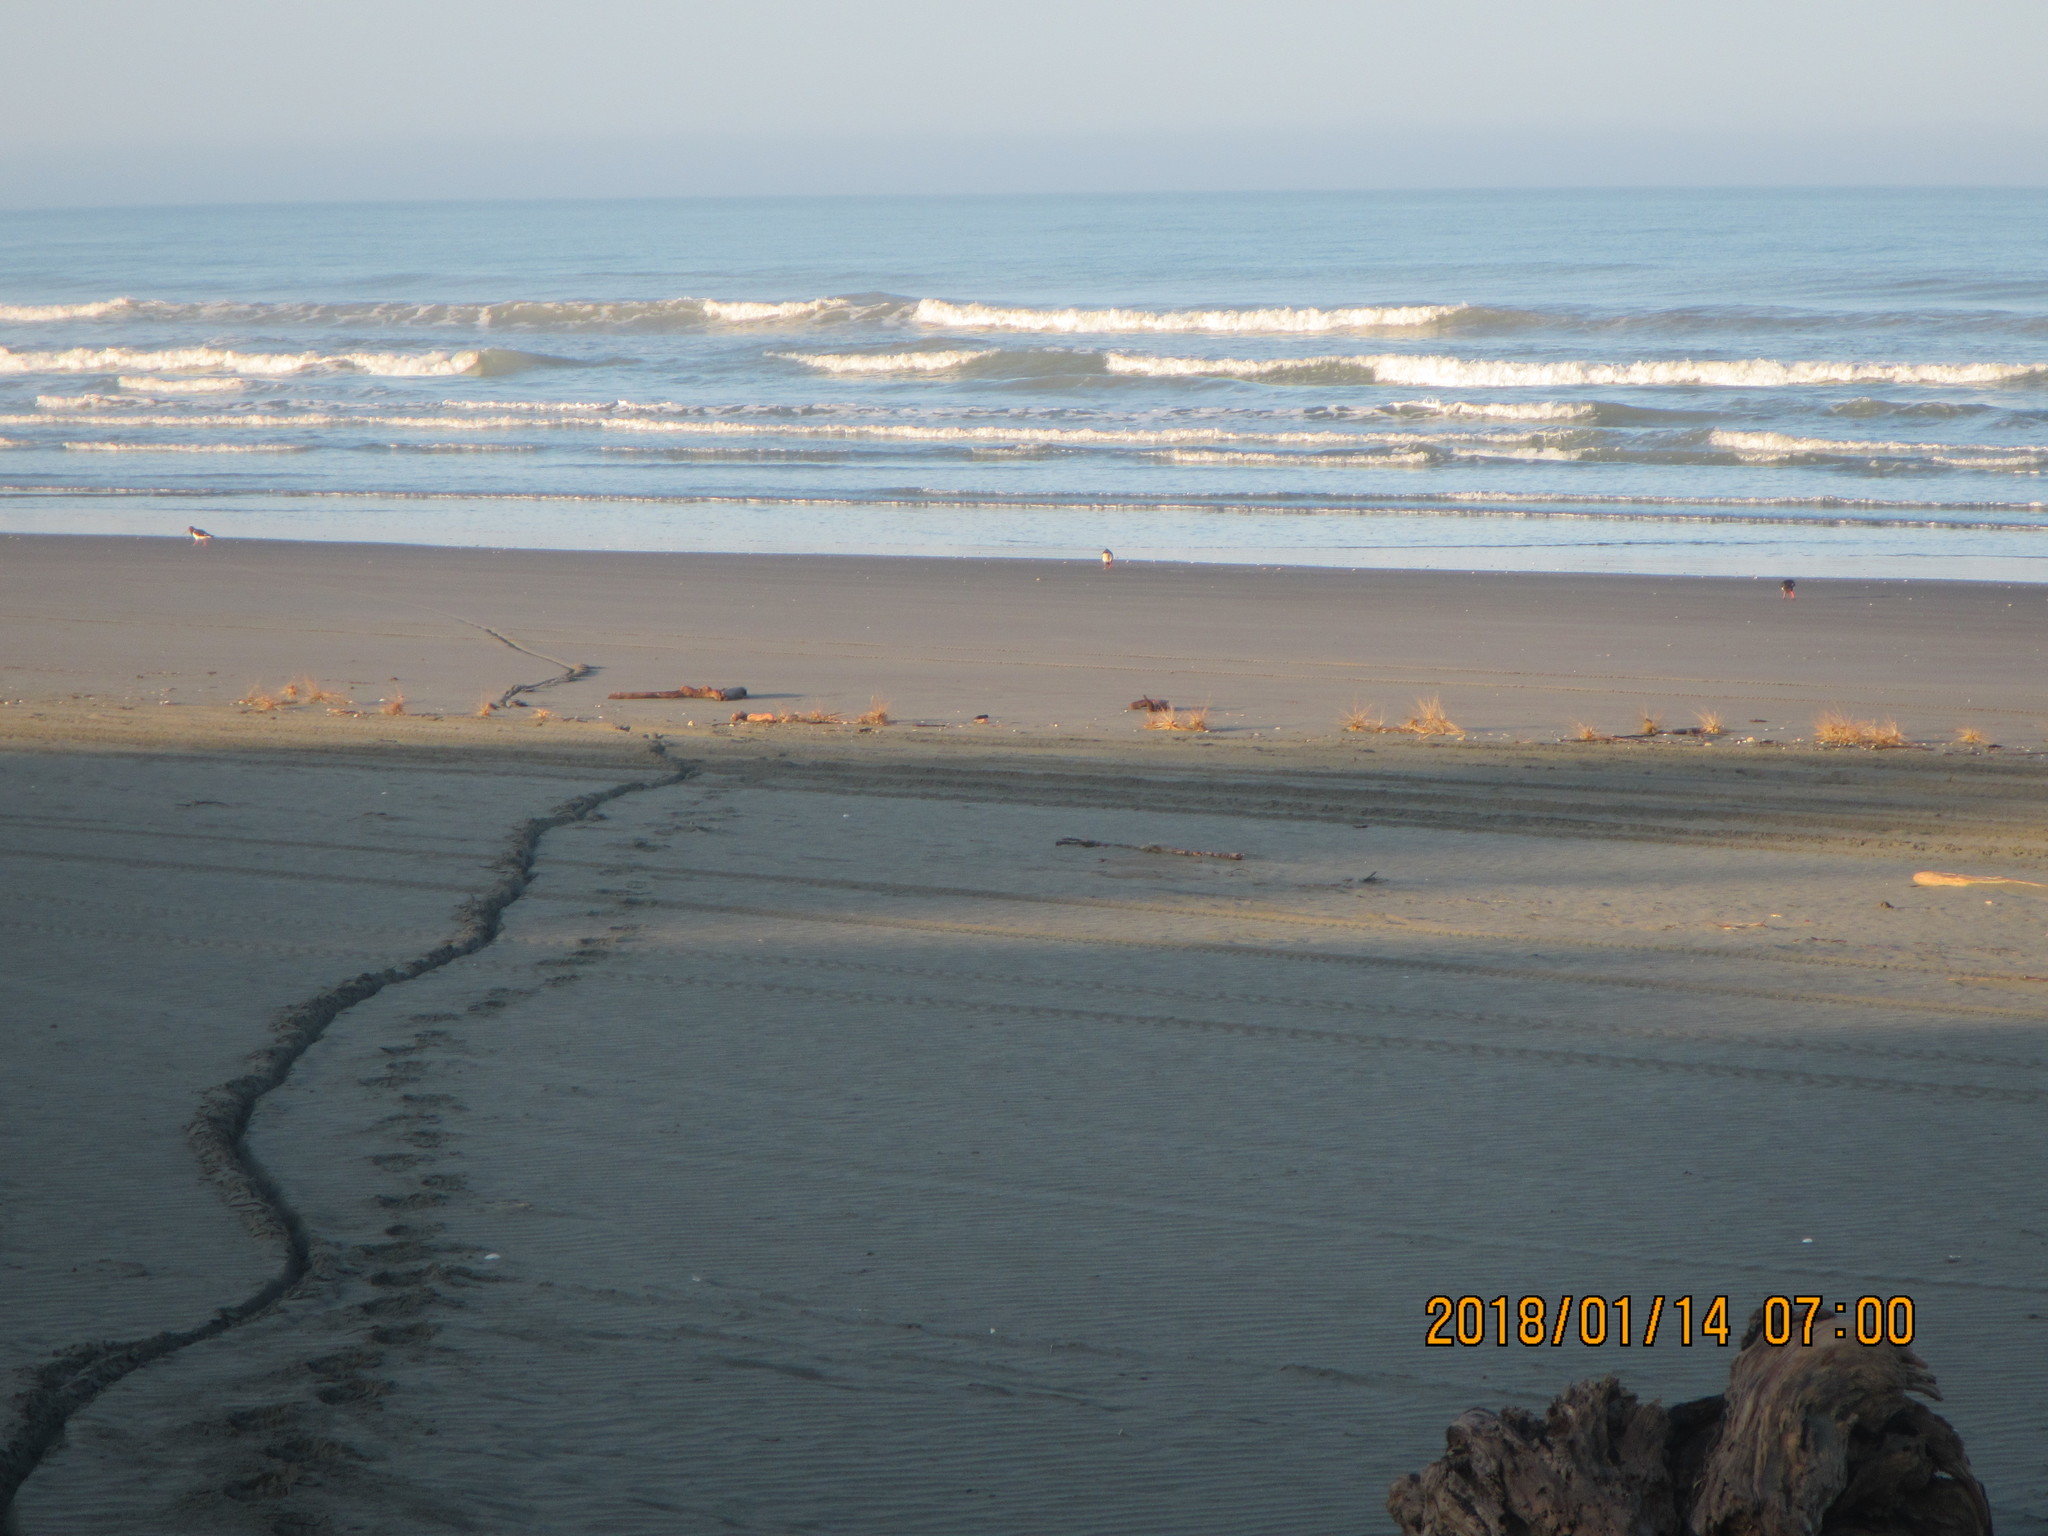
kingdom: Animalia
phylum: Chordata
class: Aves
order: Charadriiformes
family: Haematopodidae
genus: Haematopus
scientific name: Haematopus finschi
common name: South island oystercatcher
